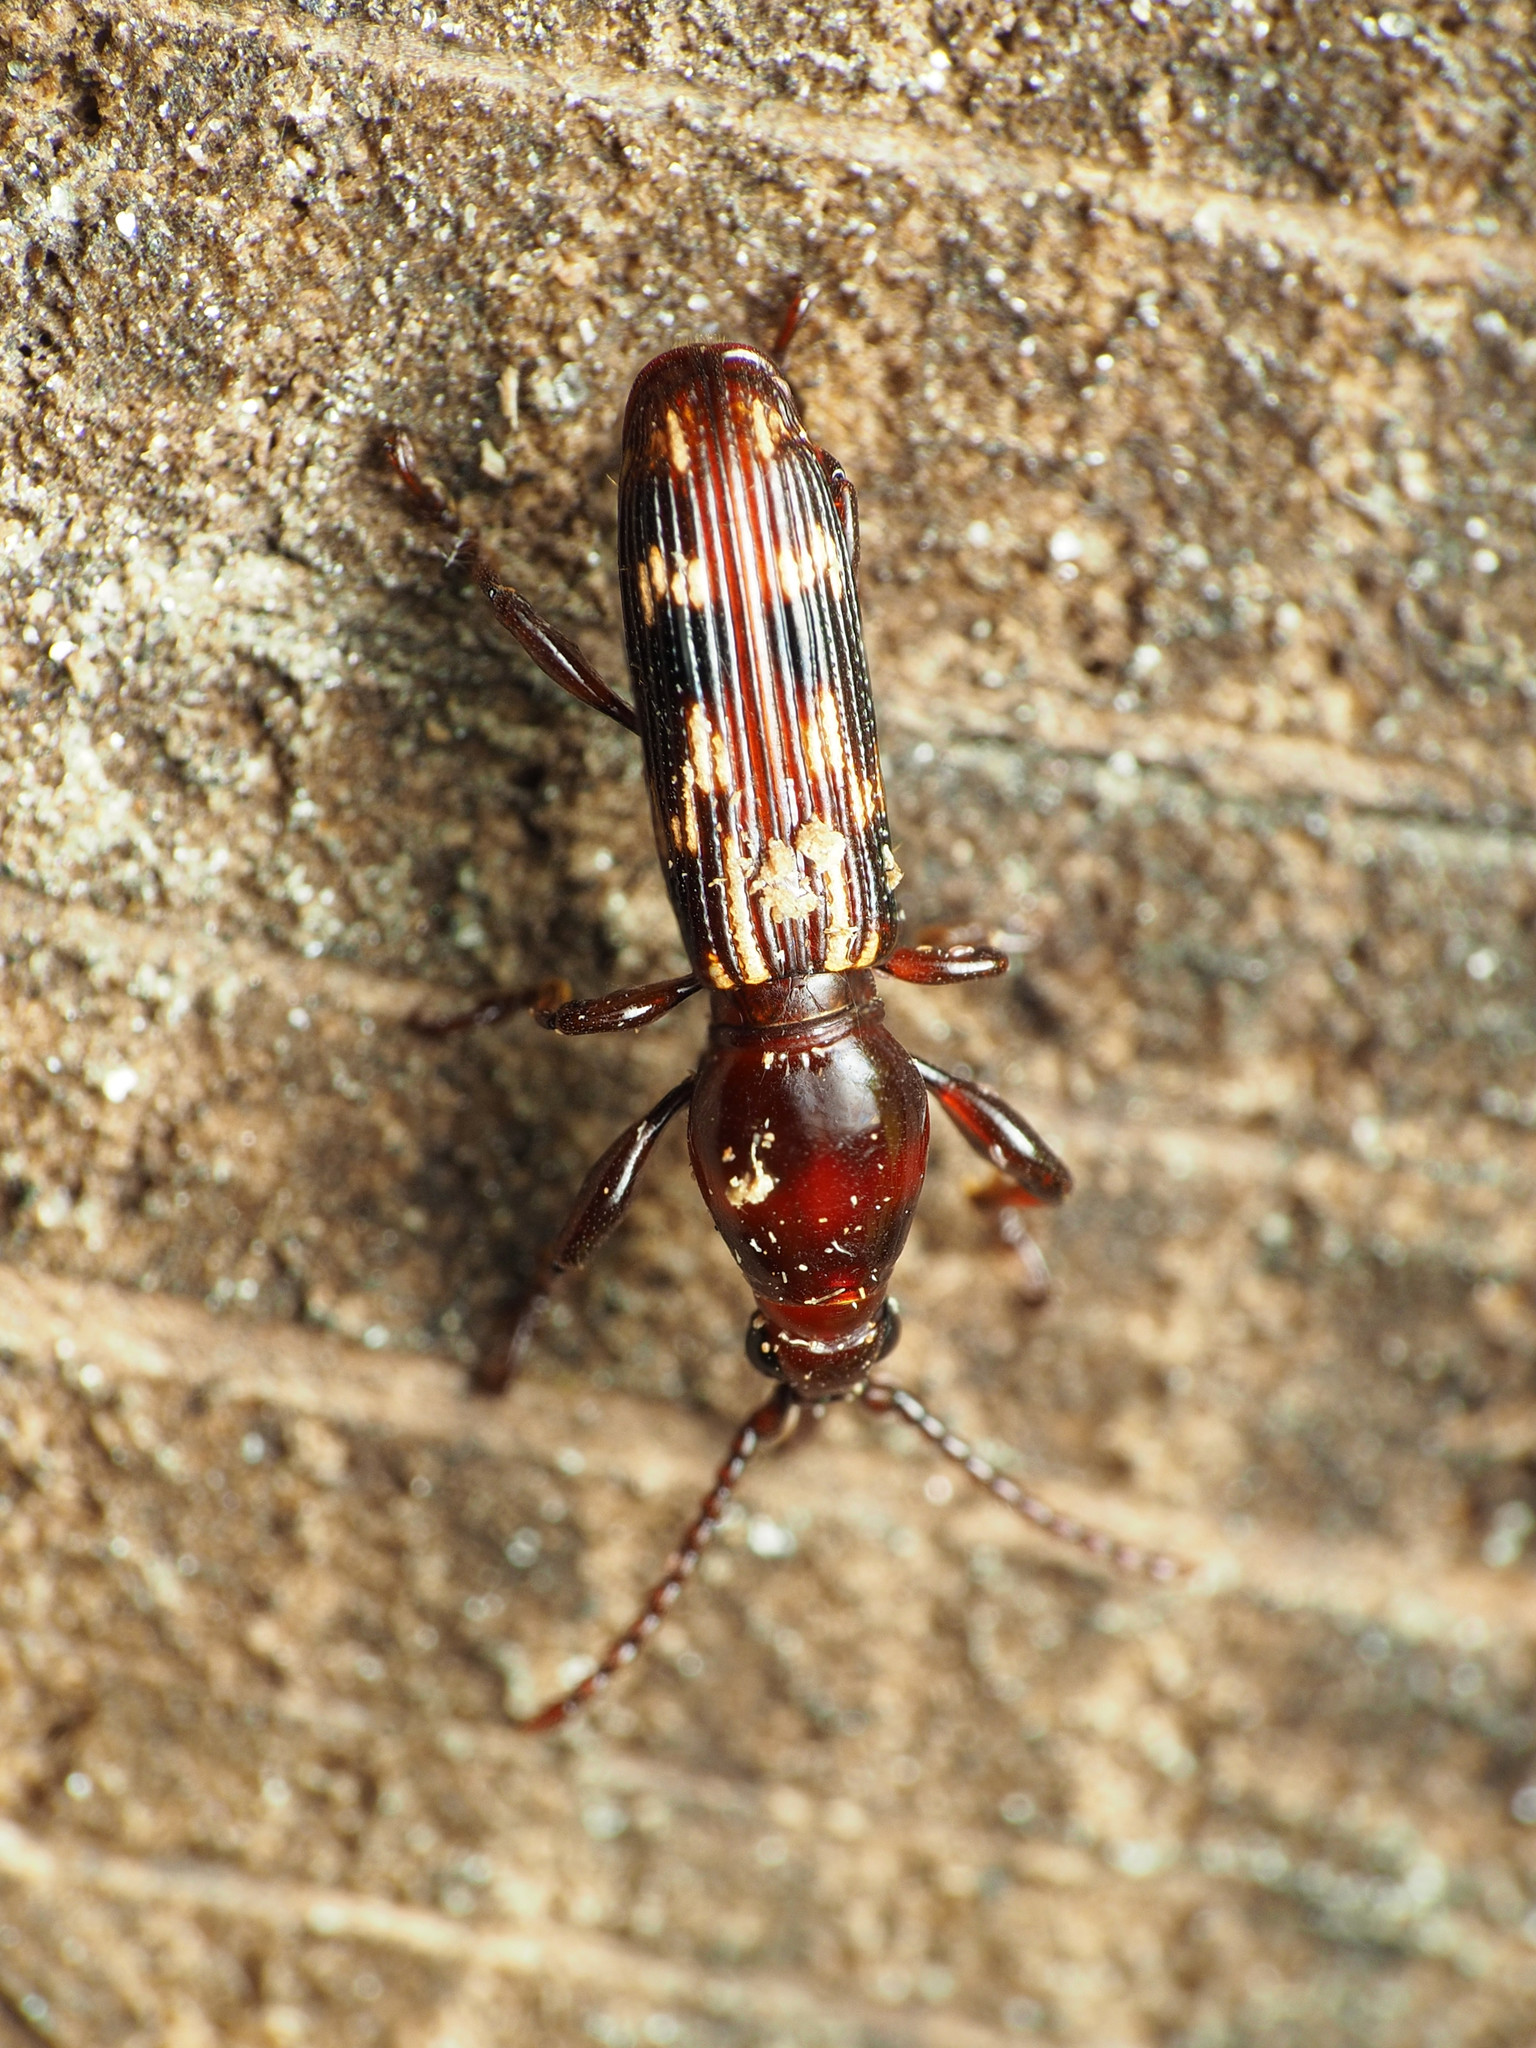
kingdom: Animalia
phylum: Arthropoda
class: Insecta
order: Coleoptera
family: Brentidae
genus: Arrenodes
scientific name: Arrenodes minutus
